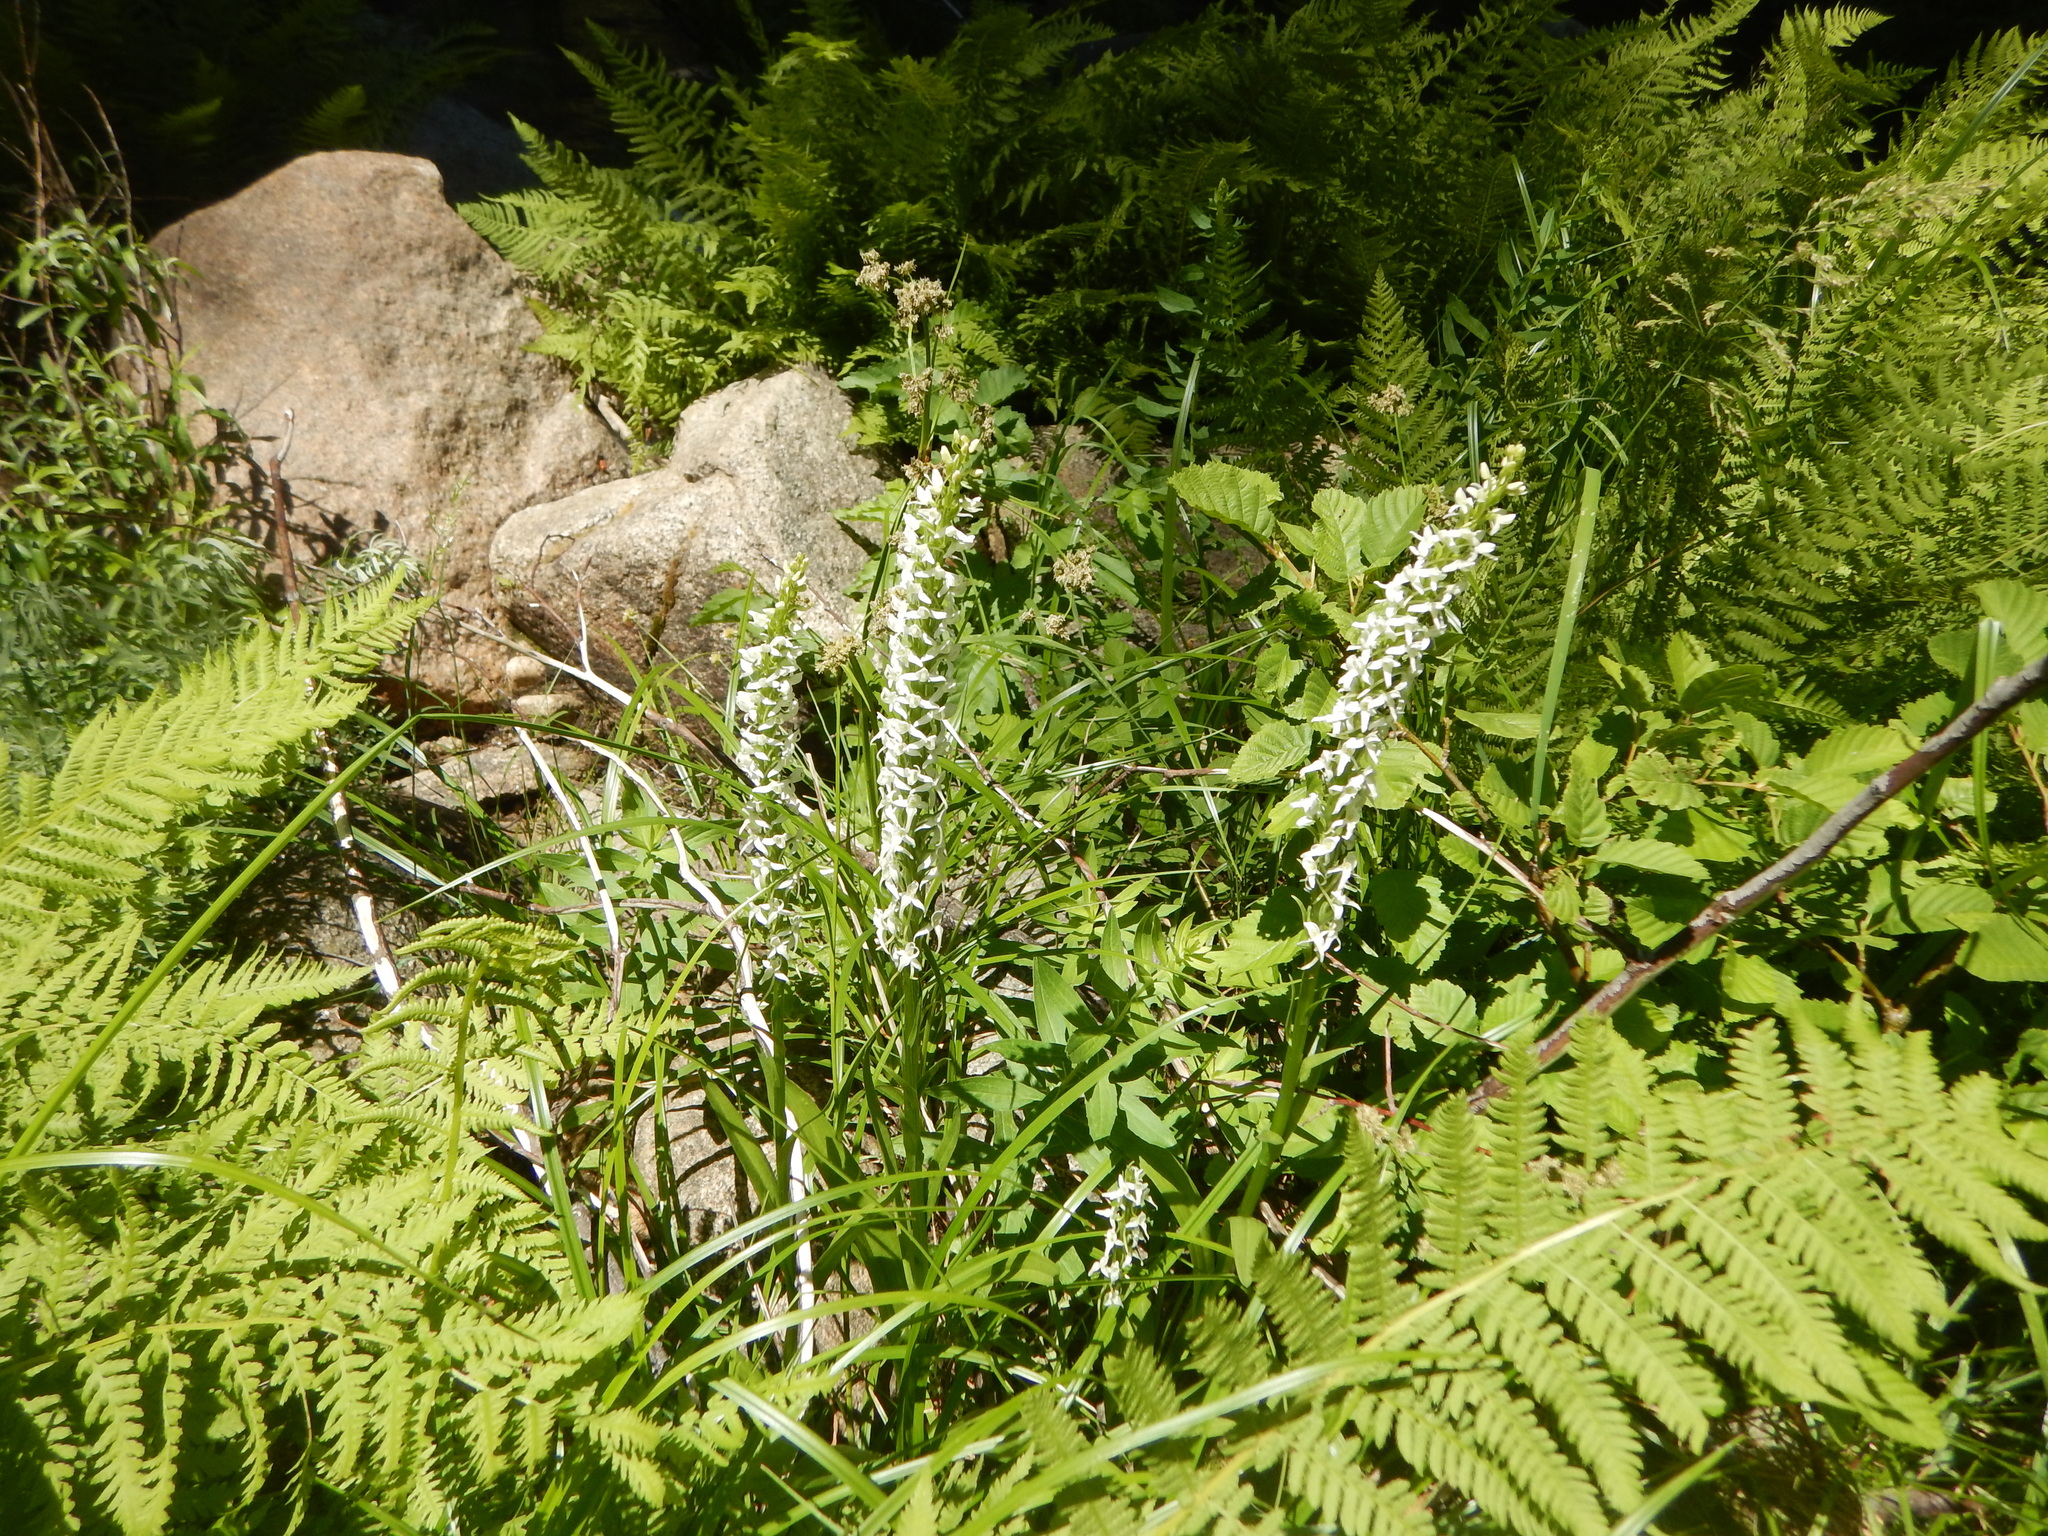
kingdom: Plantae
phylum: Tracheophyta
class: Liliopsida
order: Asparagales
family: Orchidaceae
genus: Platanthera
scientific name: Platanthera dilatata
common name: Bog candles
